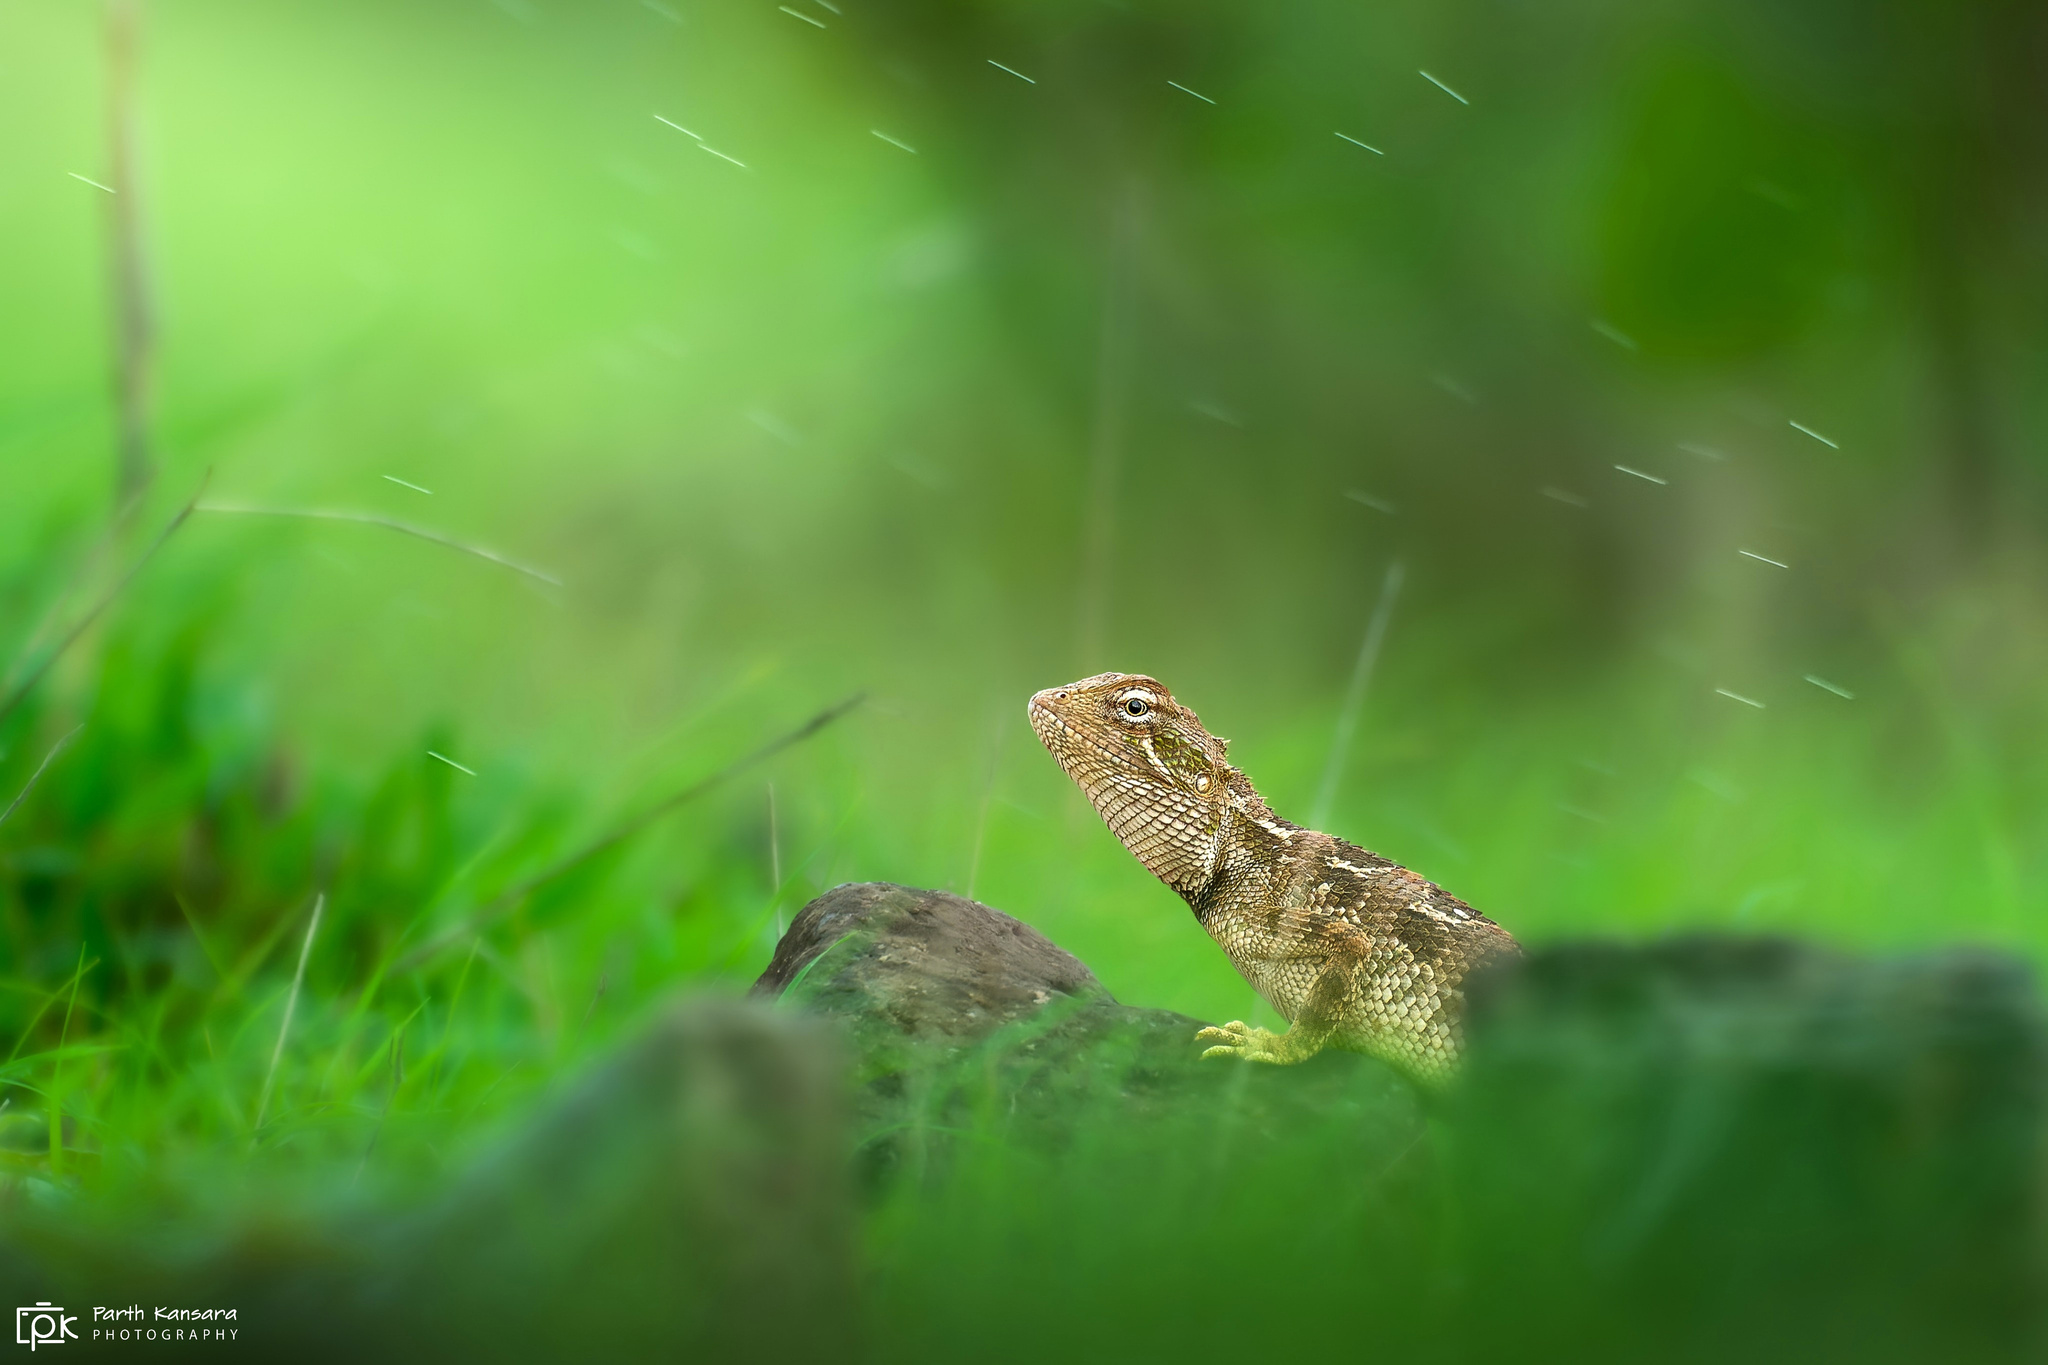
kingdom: Animalia
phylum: Chordata
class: Squamata
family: Agamidae
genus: Calotes
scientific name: Calotes minor
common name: Dwarf rock agama
